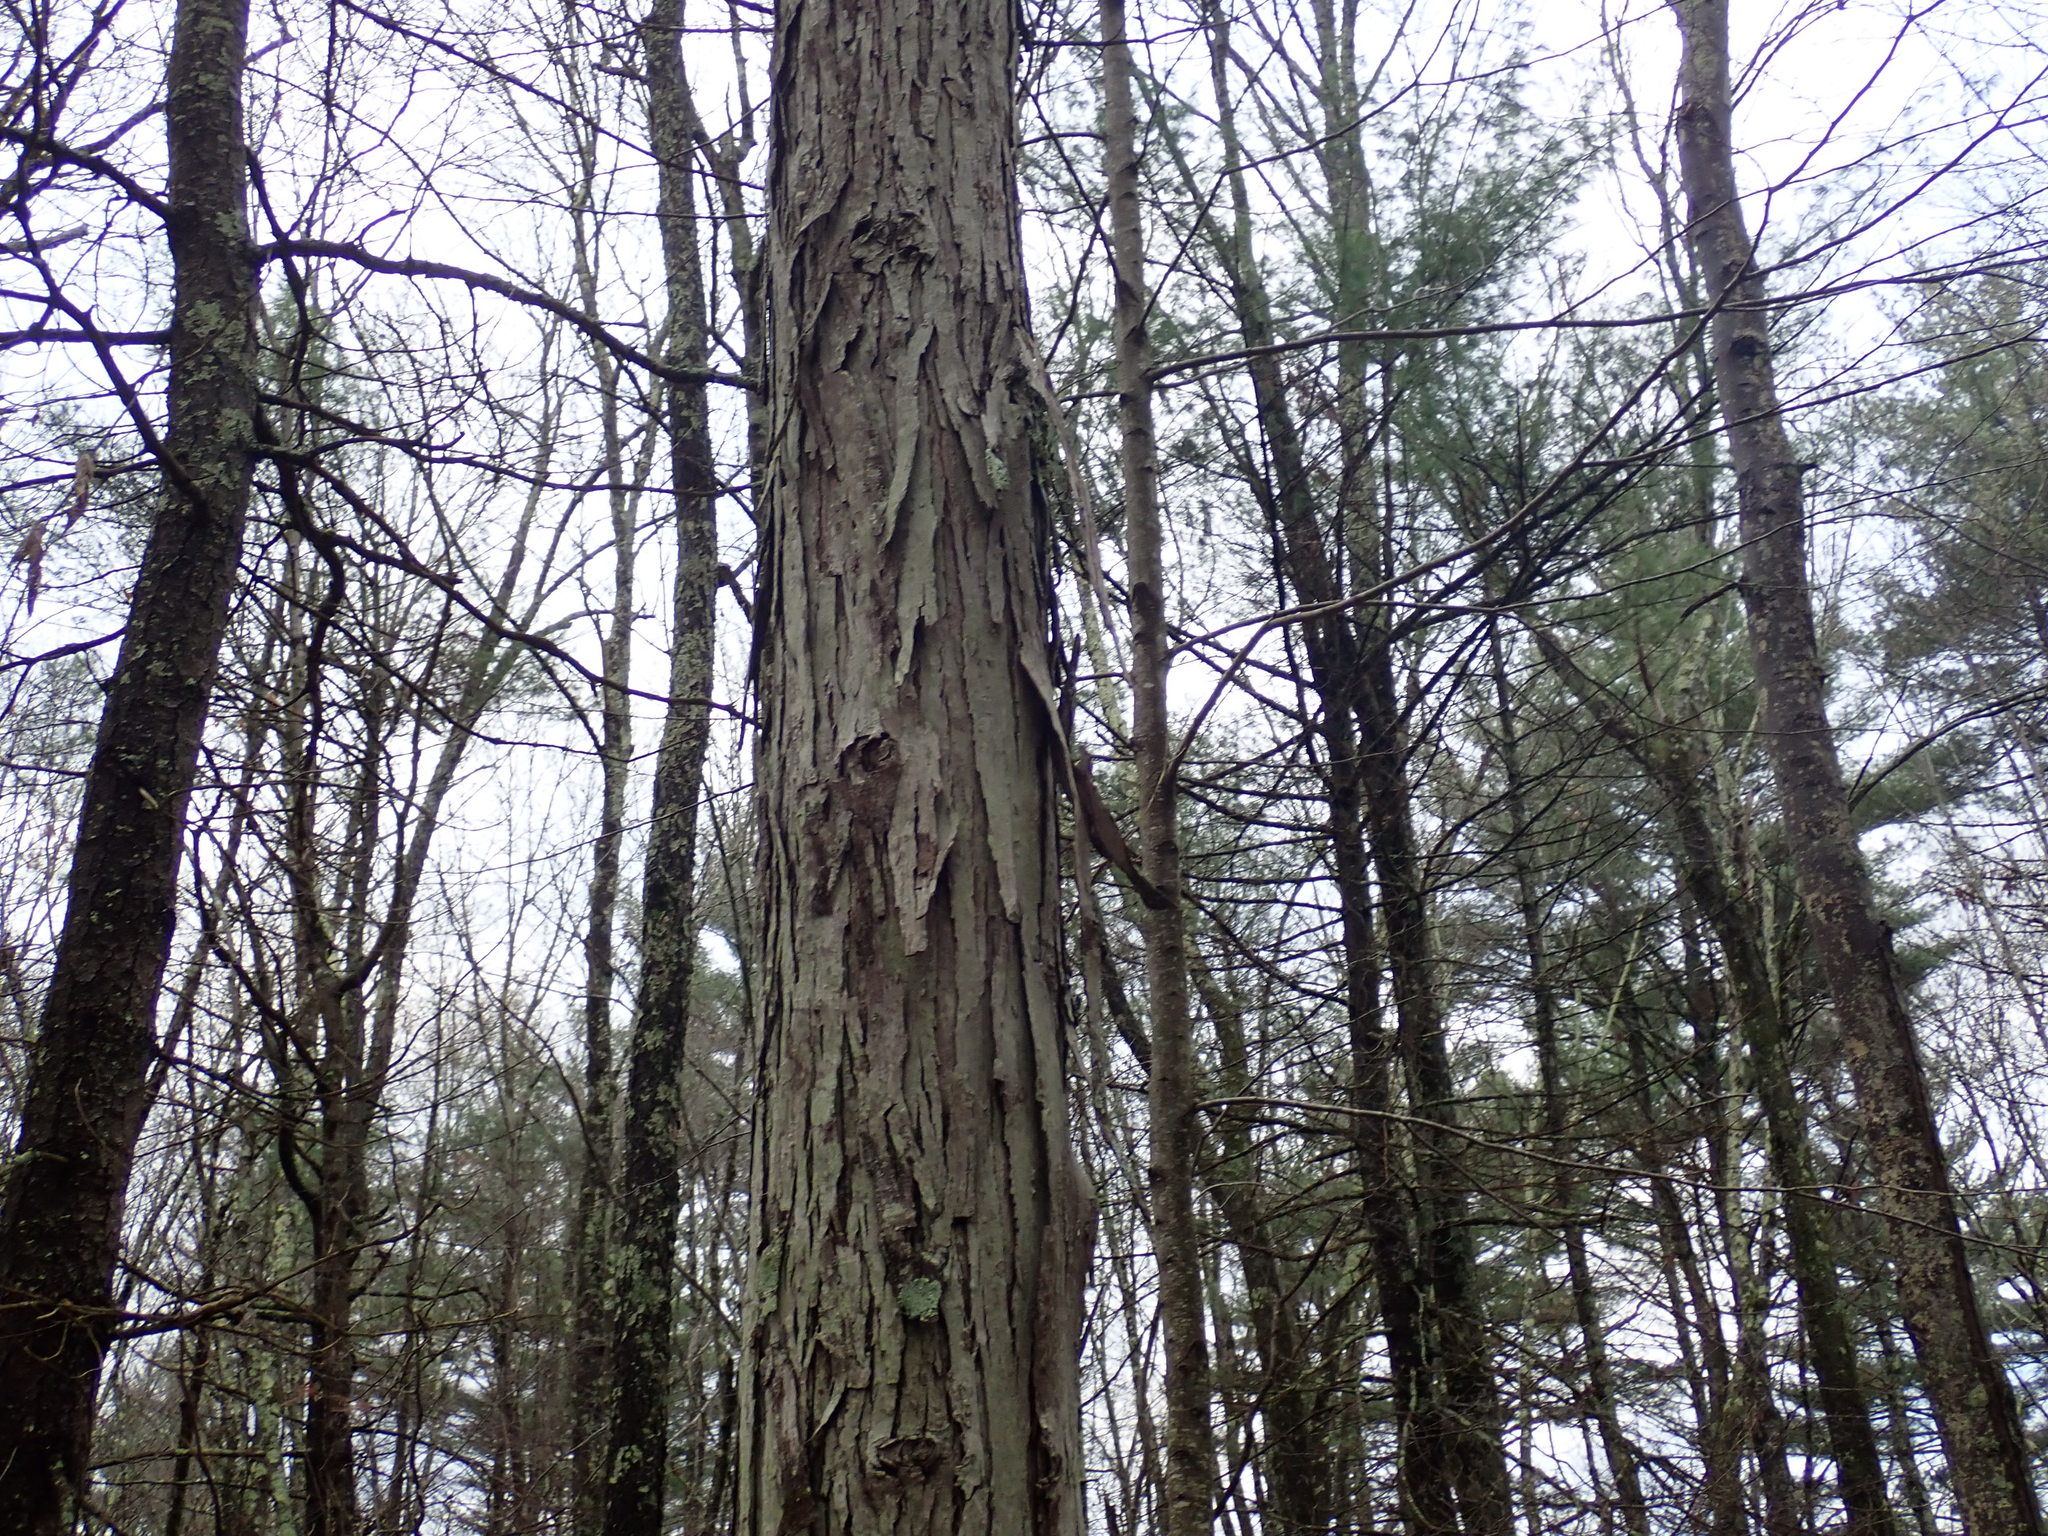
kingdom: Plantae
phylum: Tracheophyta
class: Magnoliopsida
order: Fagales
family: Juglandaceae
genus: Carya
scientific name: Carya ovata
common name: Shagbark hickory
